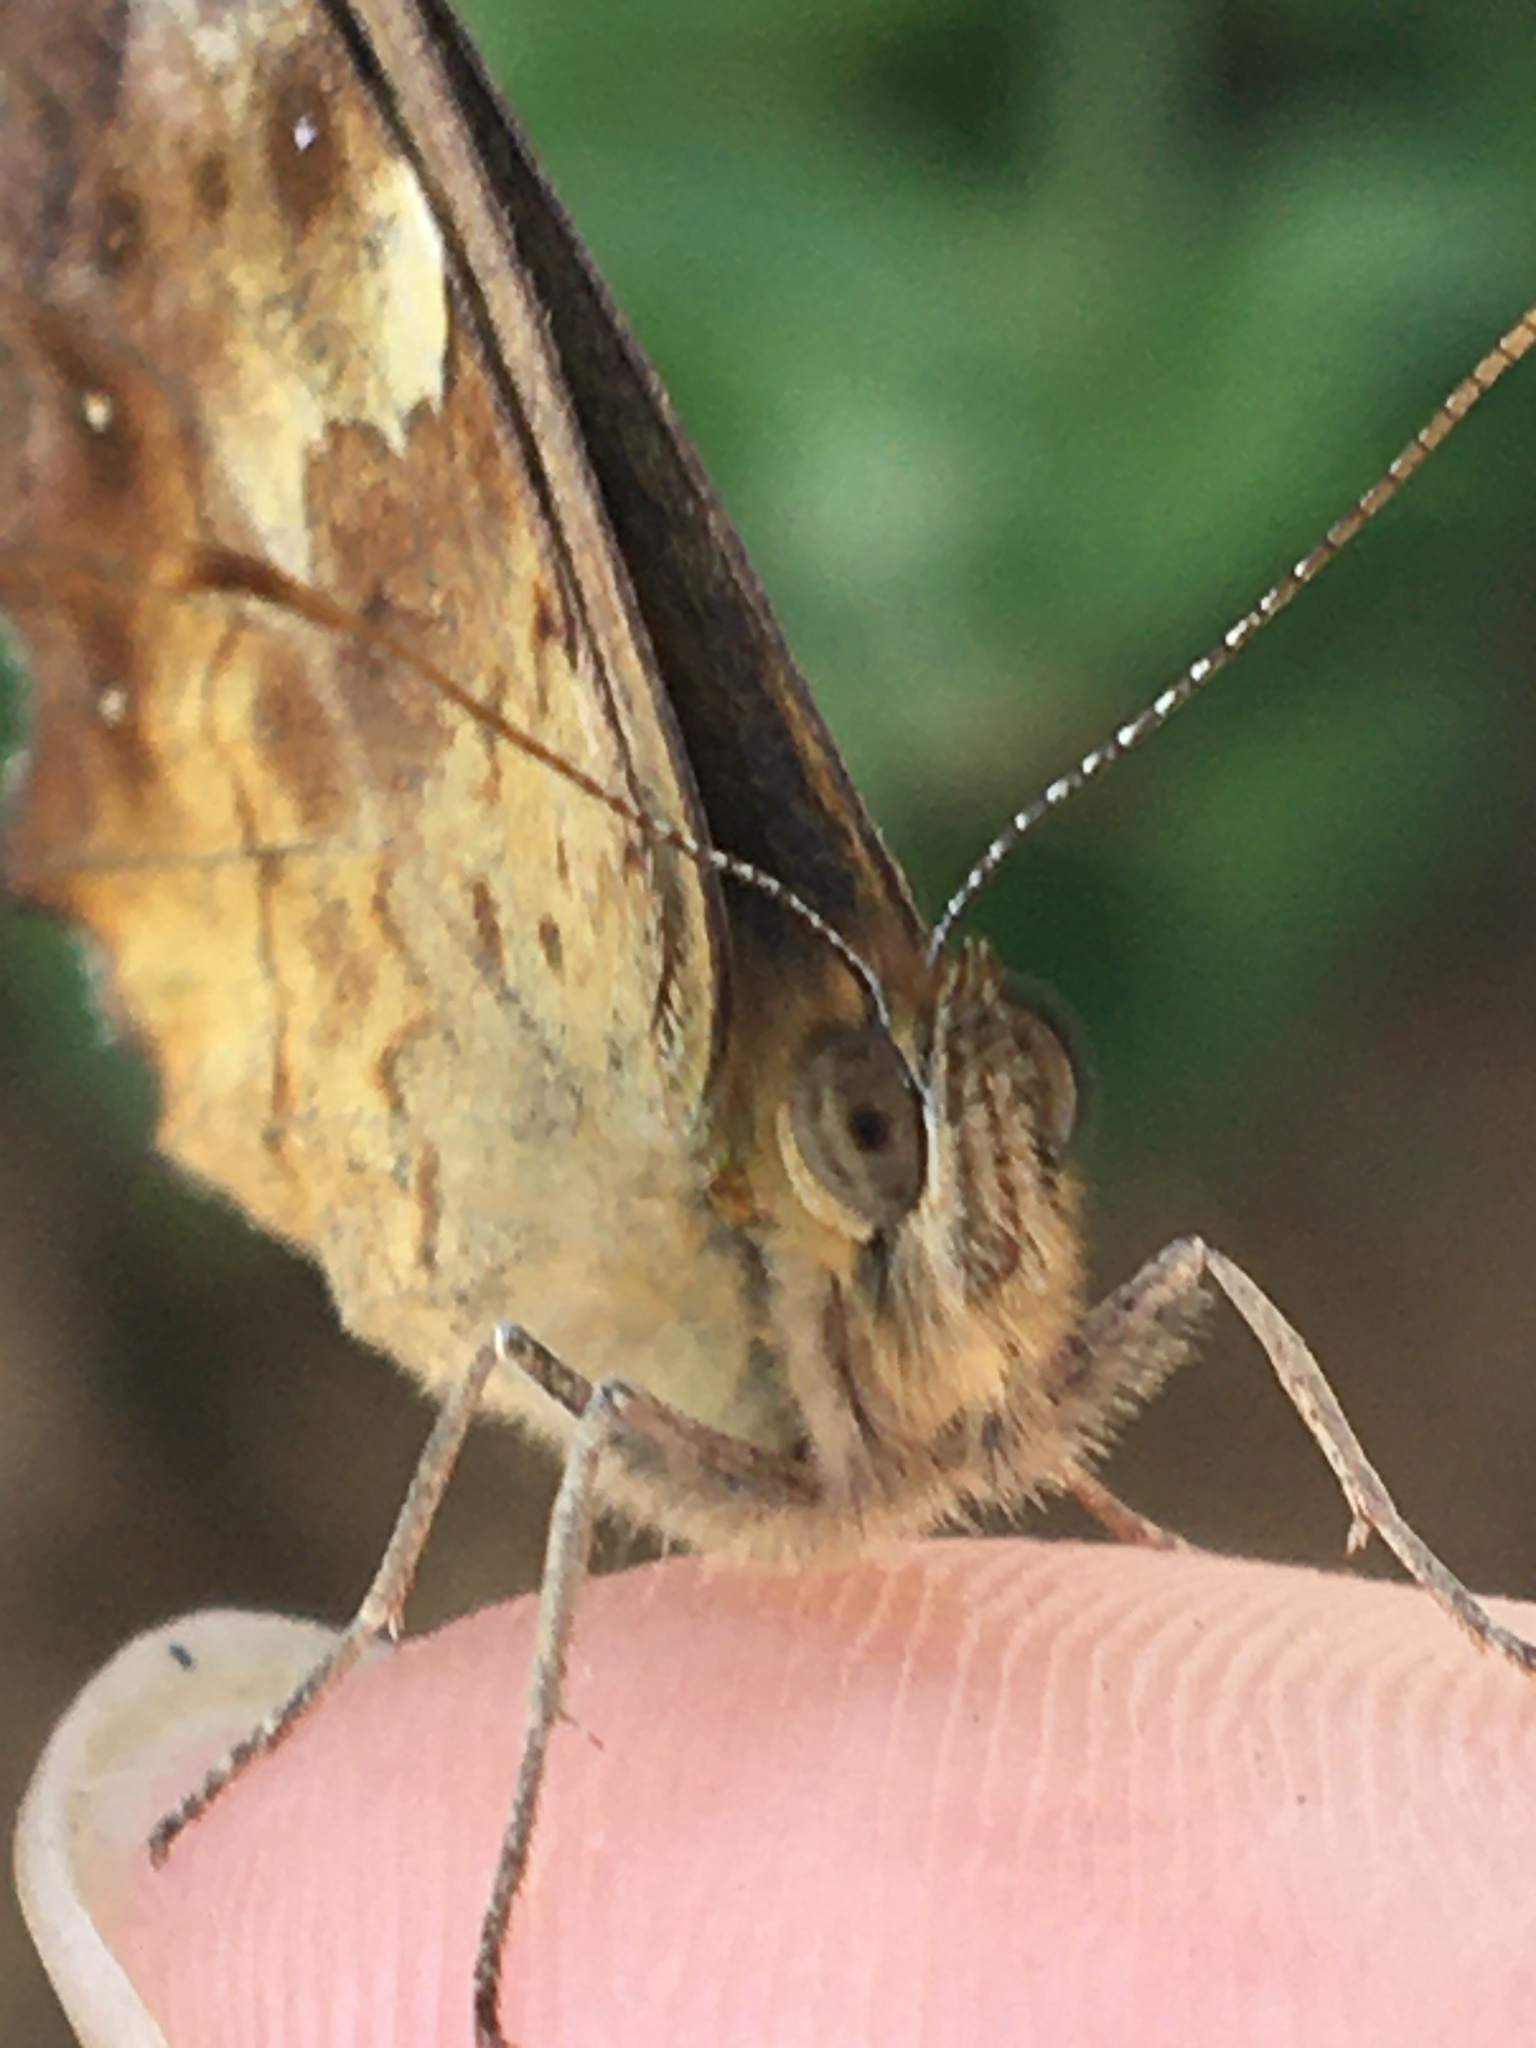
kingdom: Animalia
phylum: Arthropoda
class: Insecta
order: Lepidoptera
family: Nymphalidae
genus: Pararge
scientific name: Pararge aegeria
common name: Speckled wood
